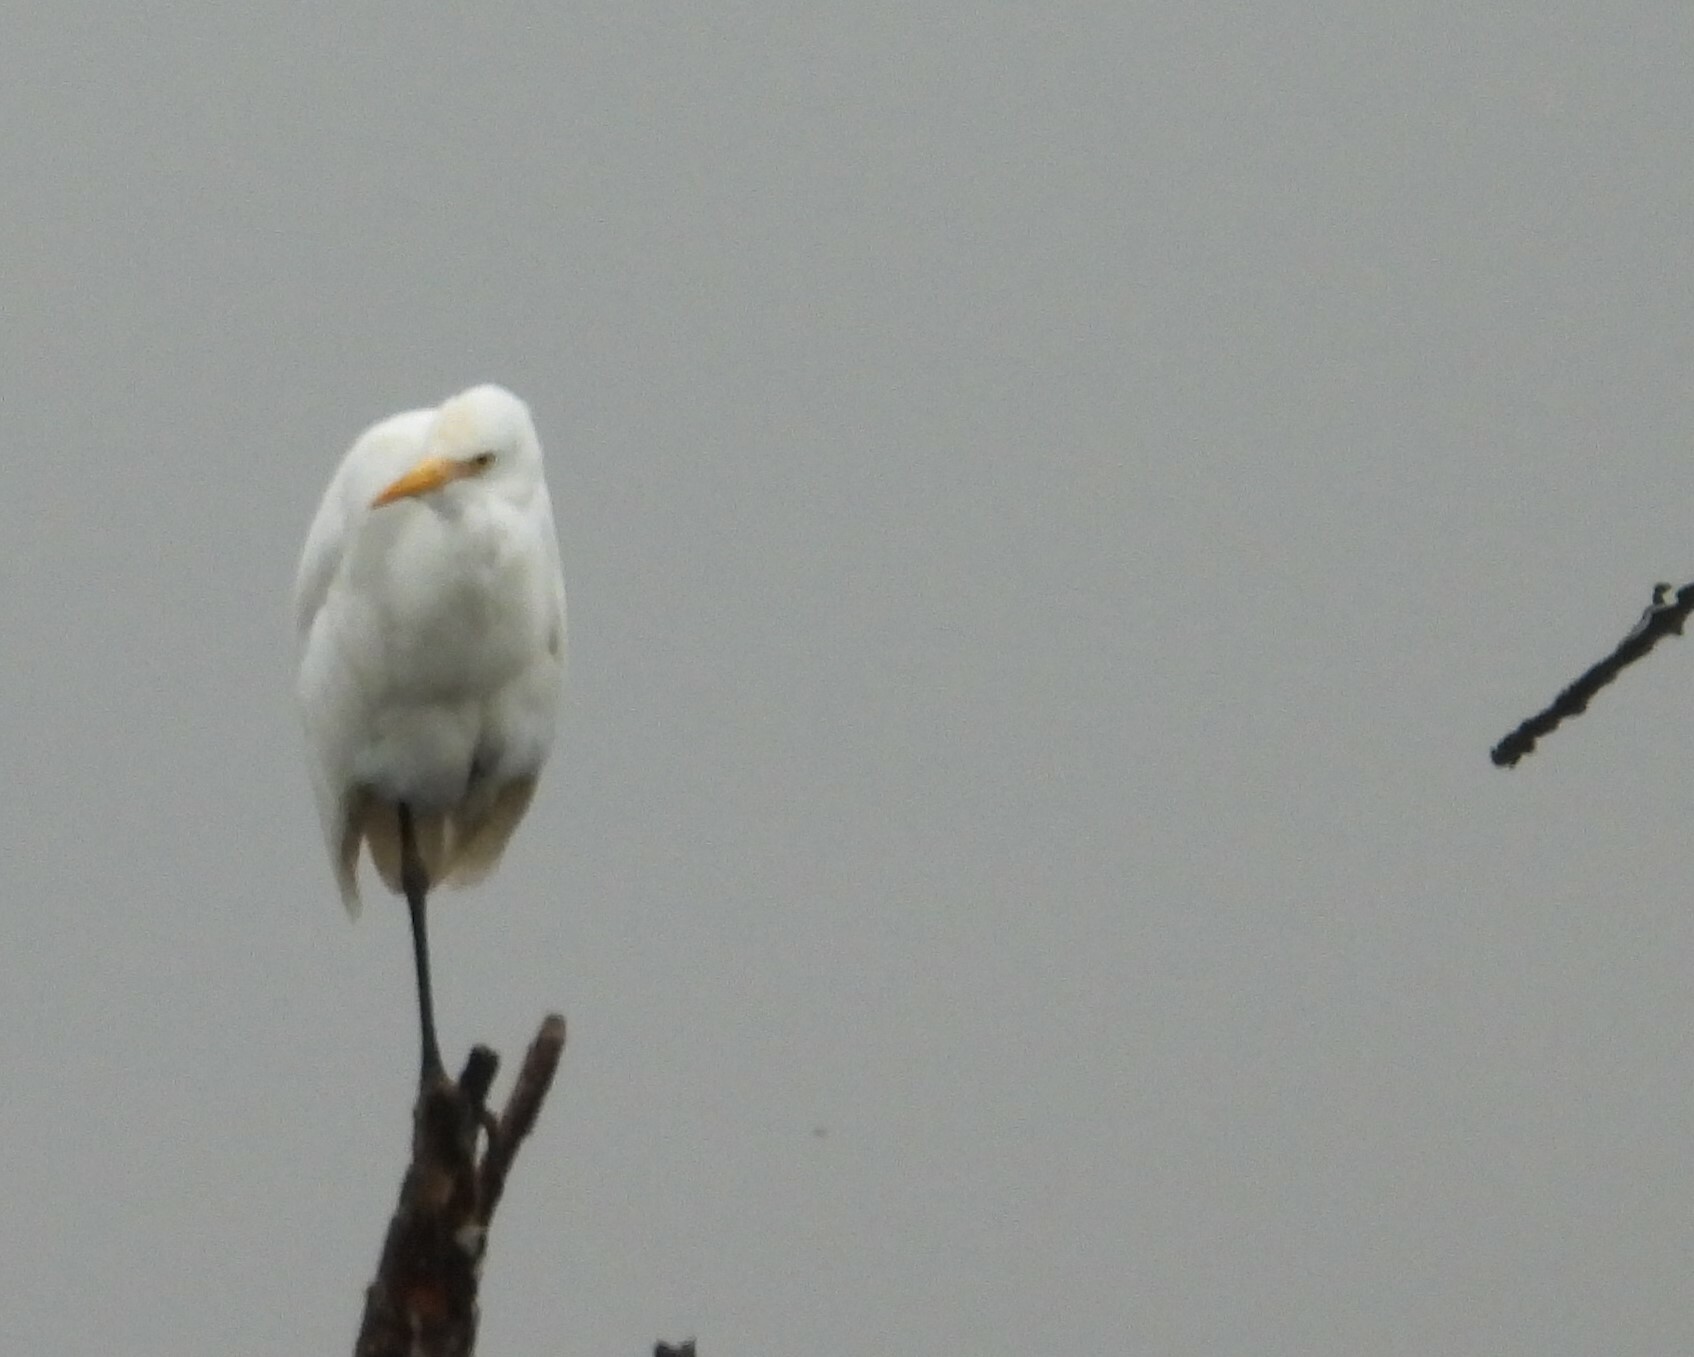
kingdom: Animalia
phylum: Chordata
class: Aves
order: Pelecaniformes
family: Ardeidae
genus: Bubulcus
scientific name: Bubulcus coromandus
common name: Eastern cattle egret
